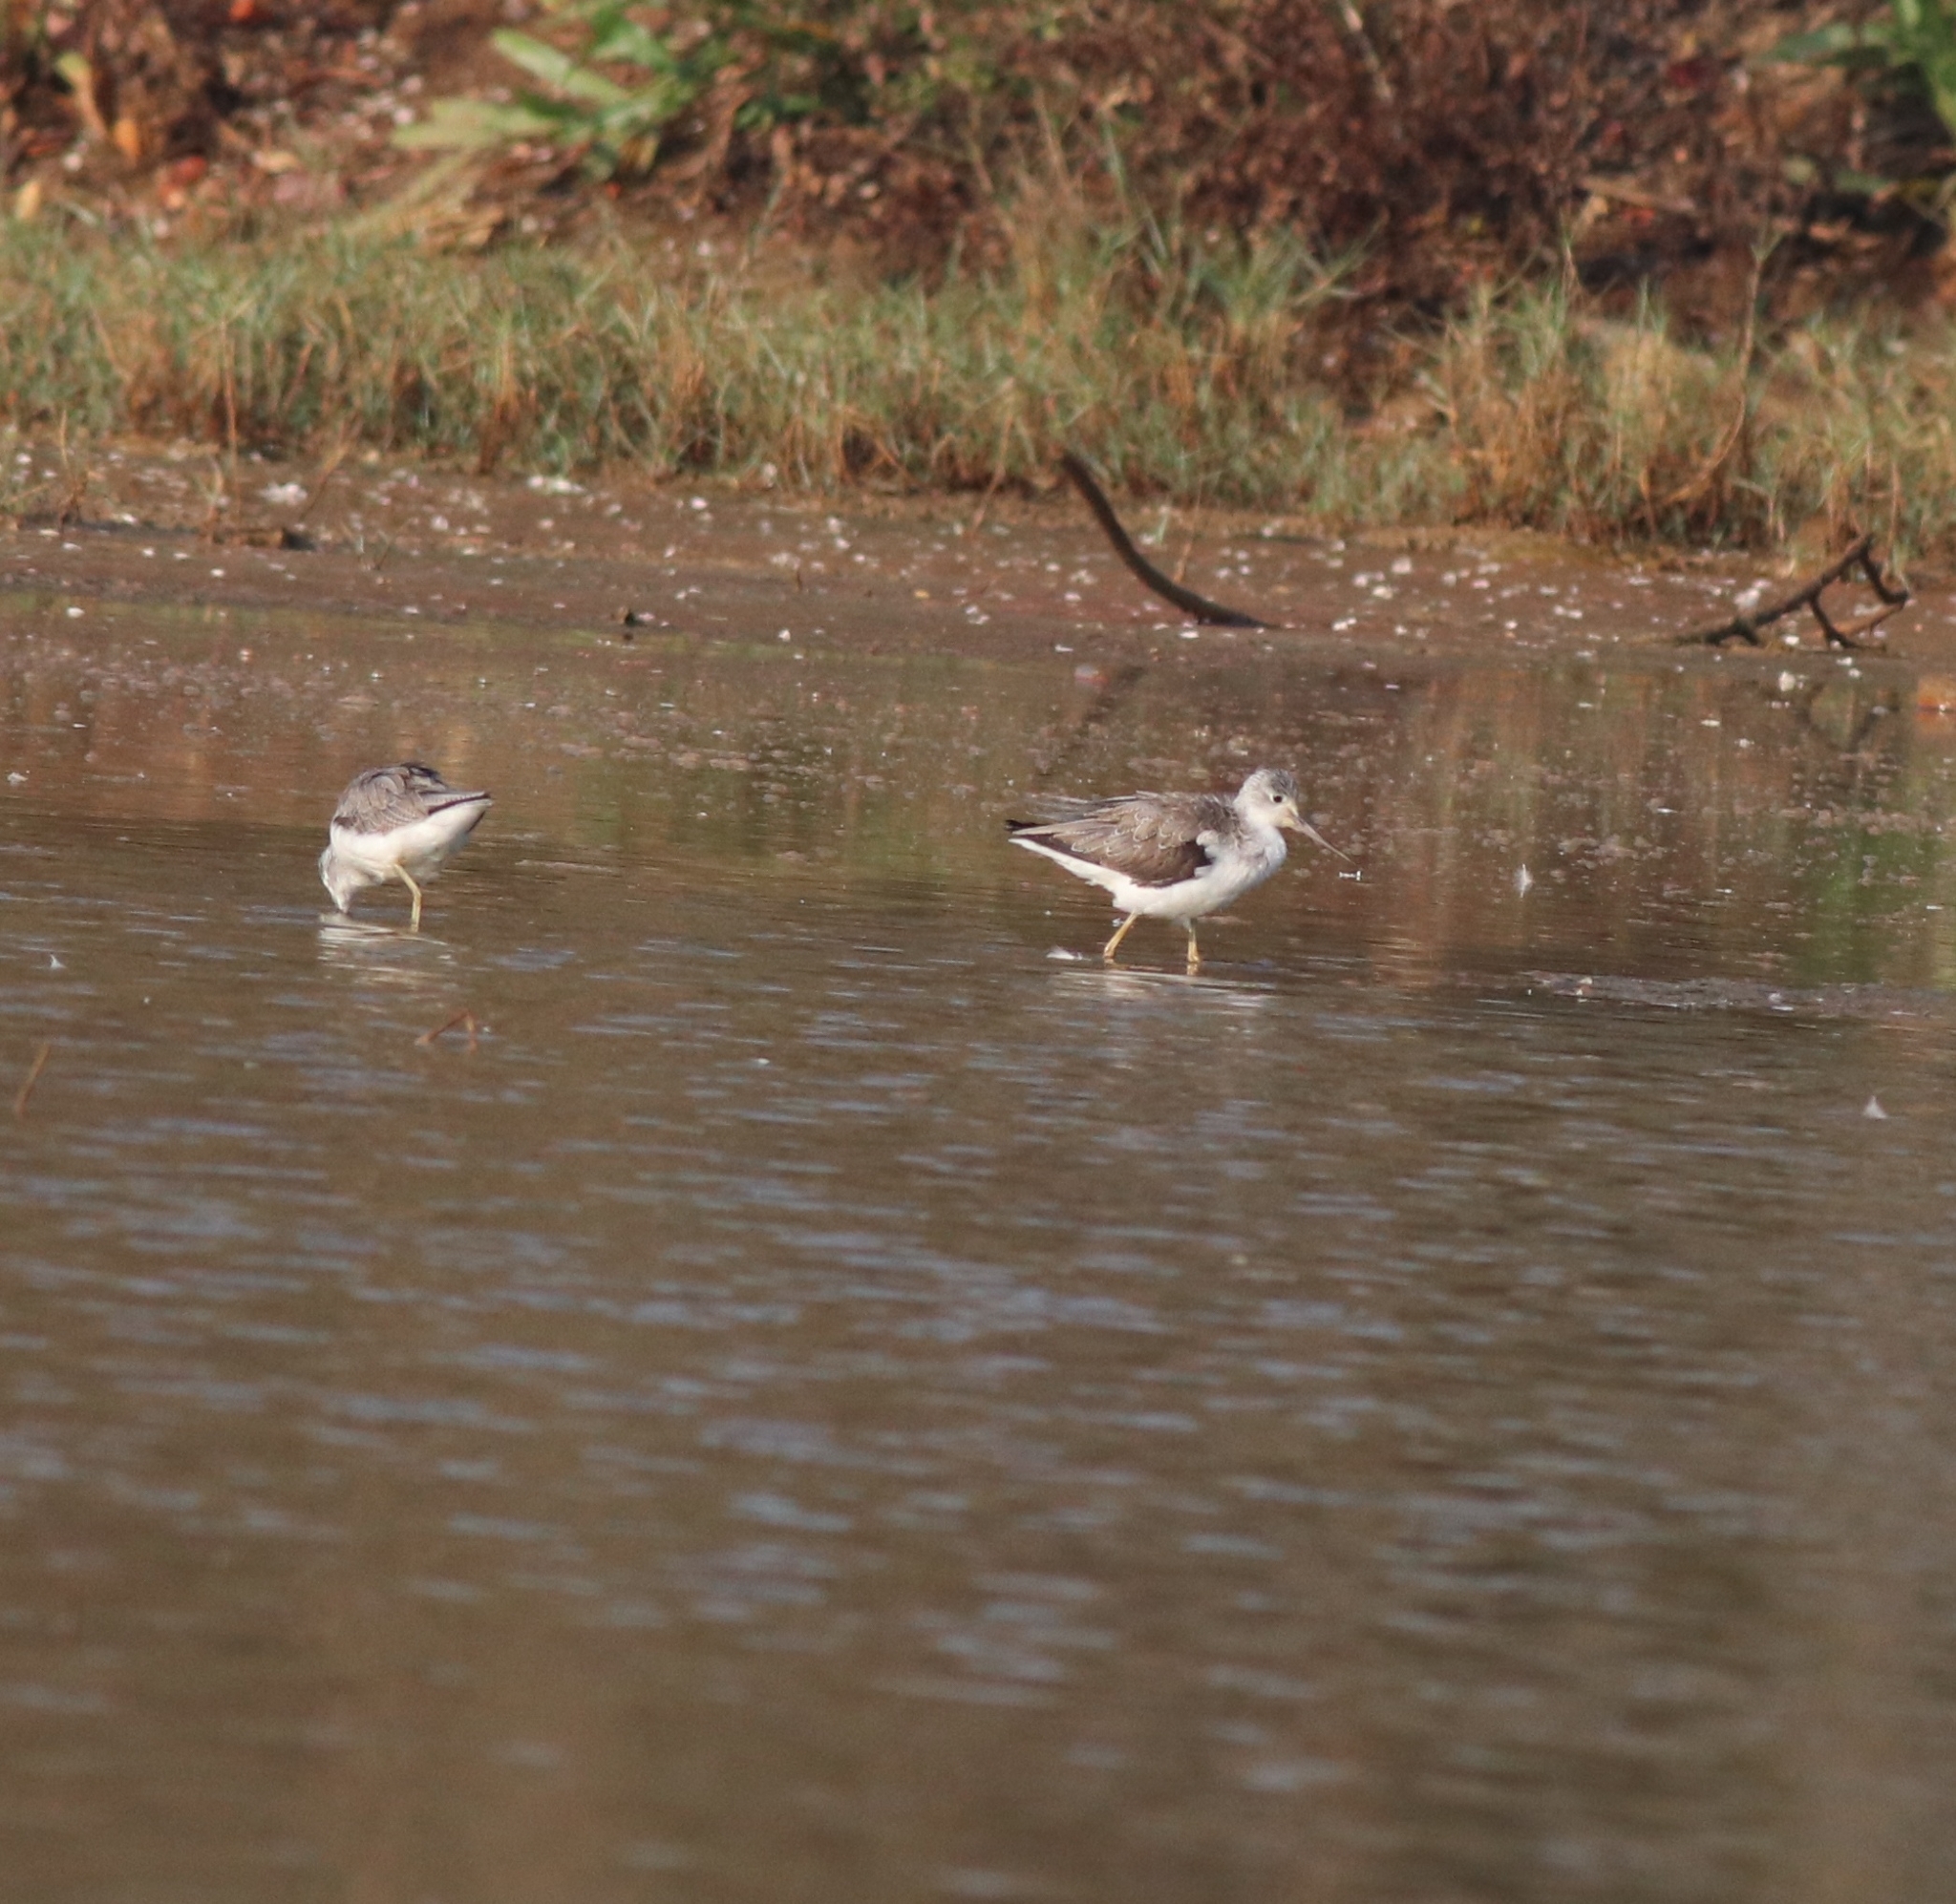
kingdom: Animalia
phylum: Chordata
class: Aves
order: Charadriiformes
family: Scolopacidae
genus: Tringa
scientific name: Tringa nebularia
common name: Common greenshank
